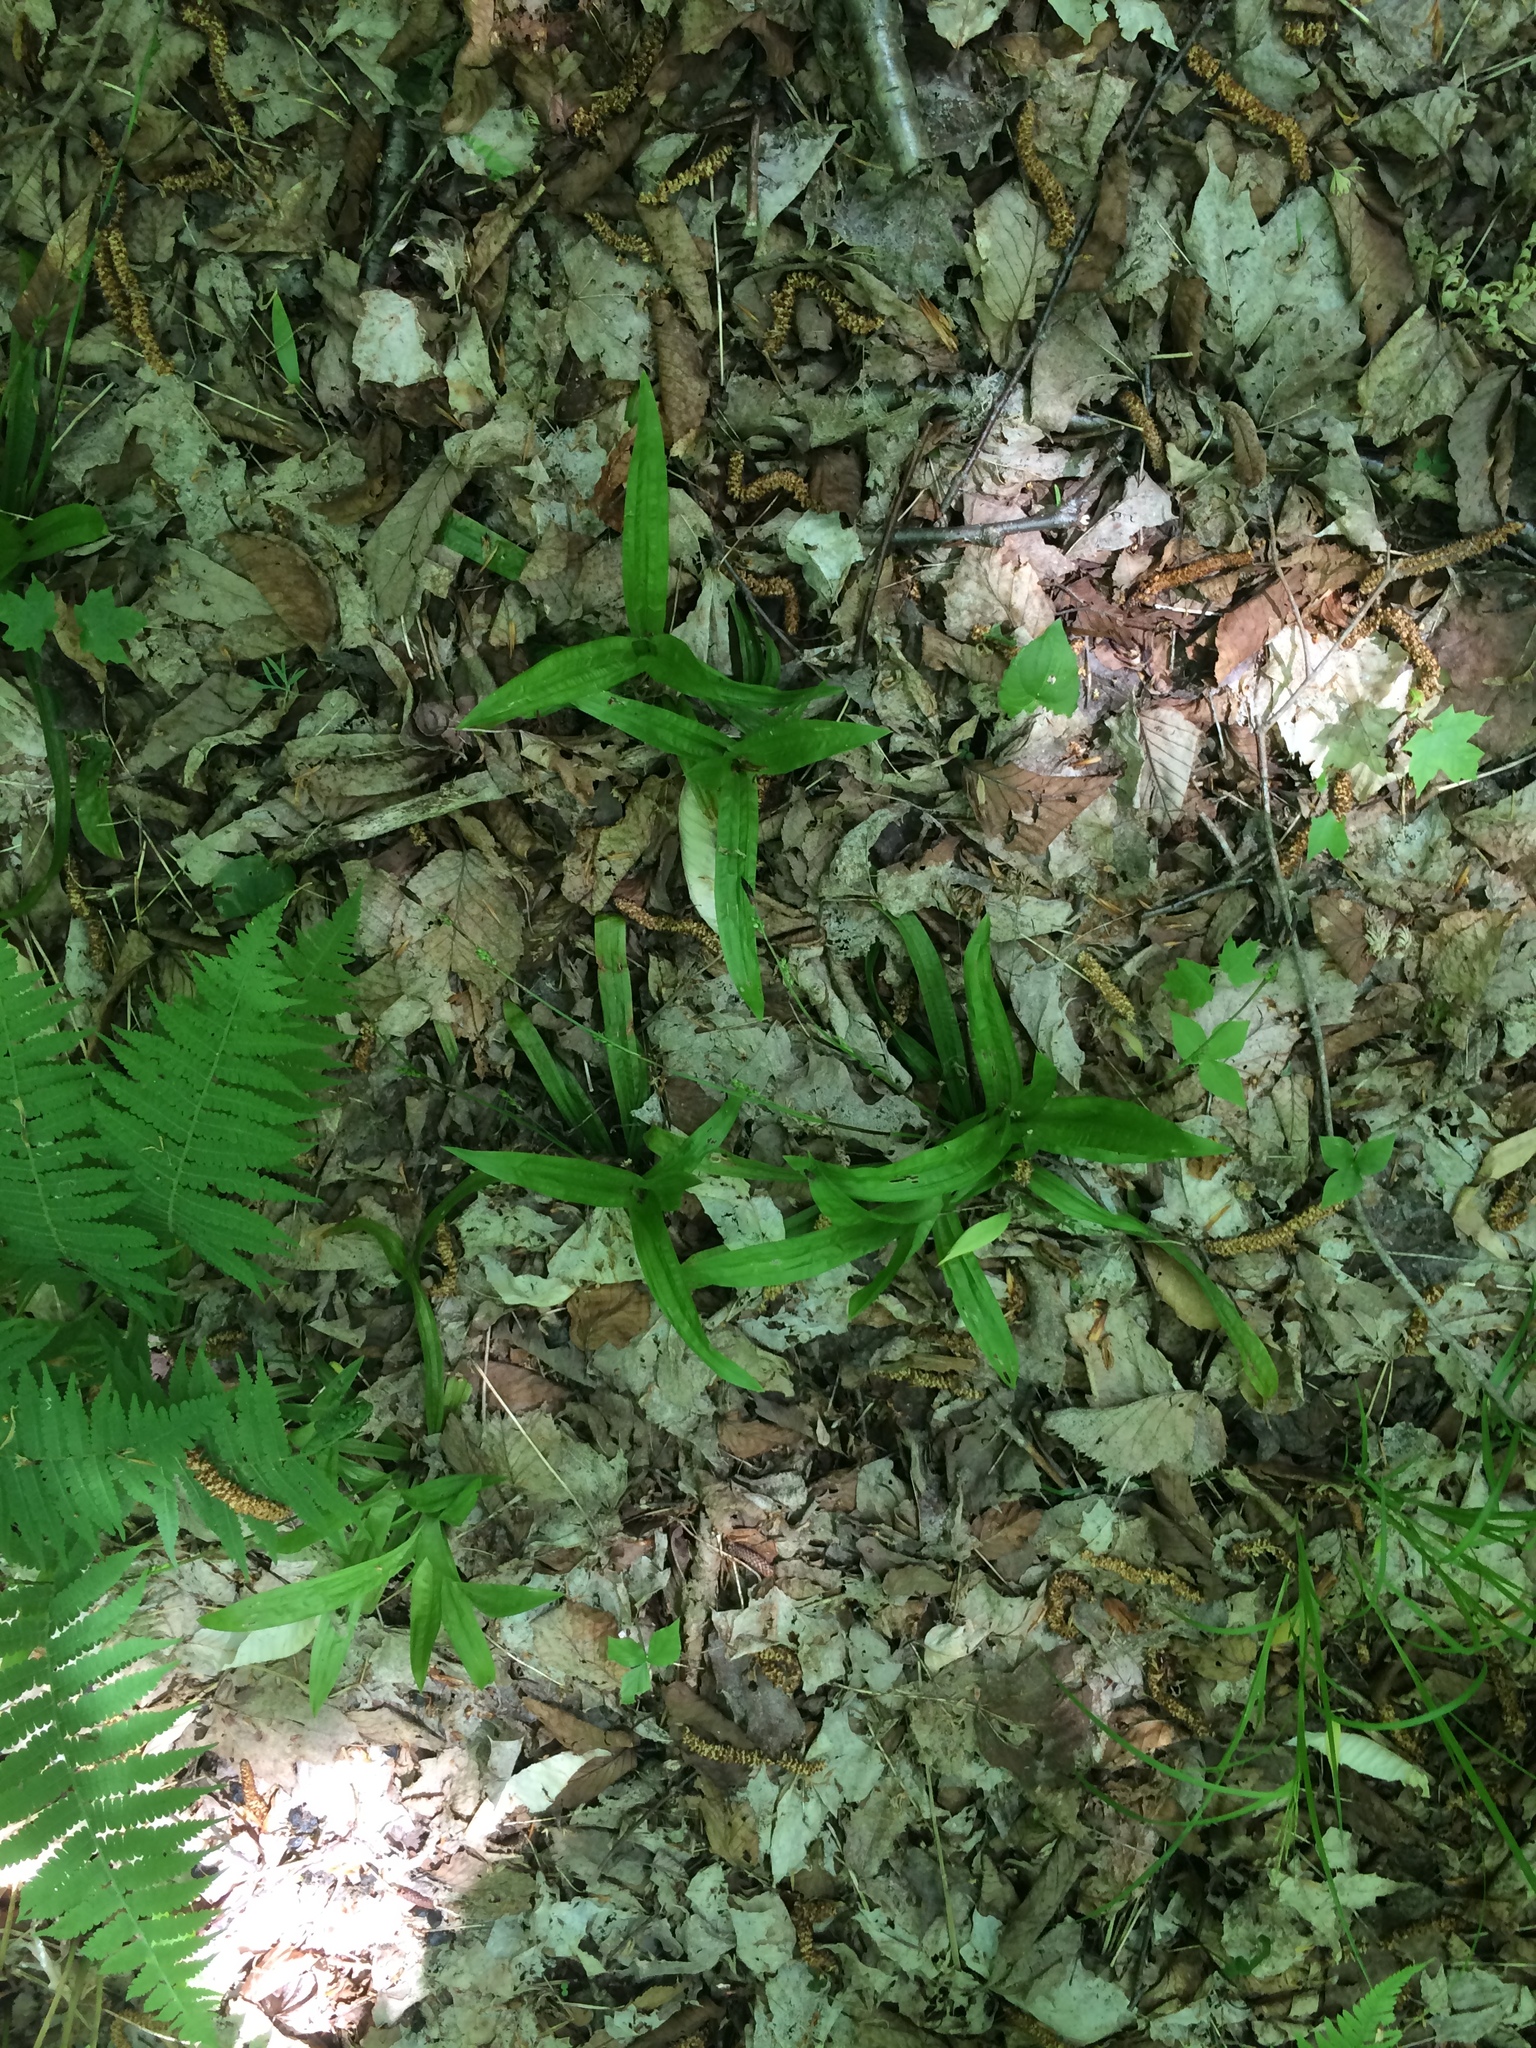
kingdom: Plantae
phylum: Tracheophyta
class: Liliopsida
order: Poales
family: Cyperaceae
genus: Carex
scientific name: Carex plantaginea
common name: Plantain-leaved sedge
